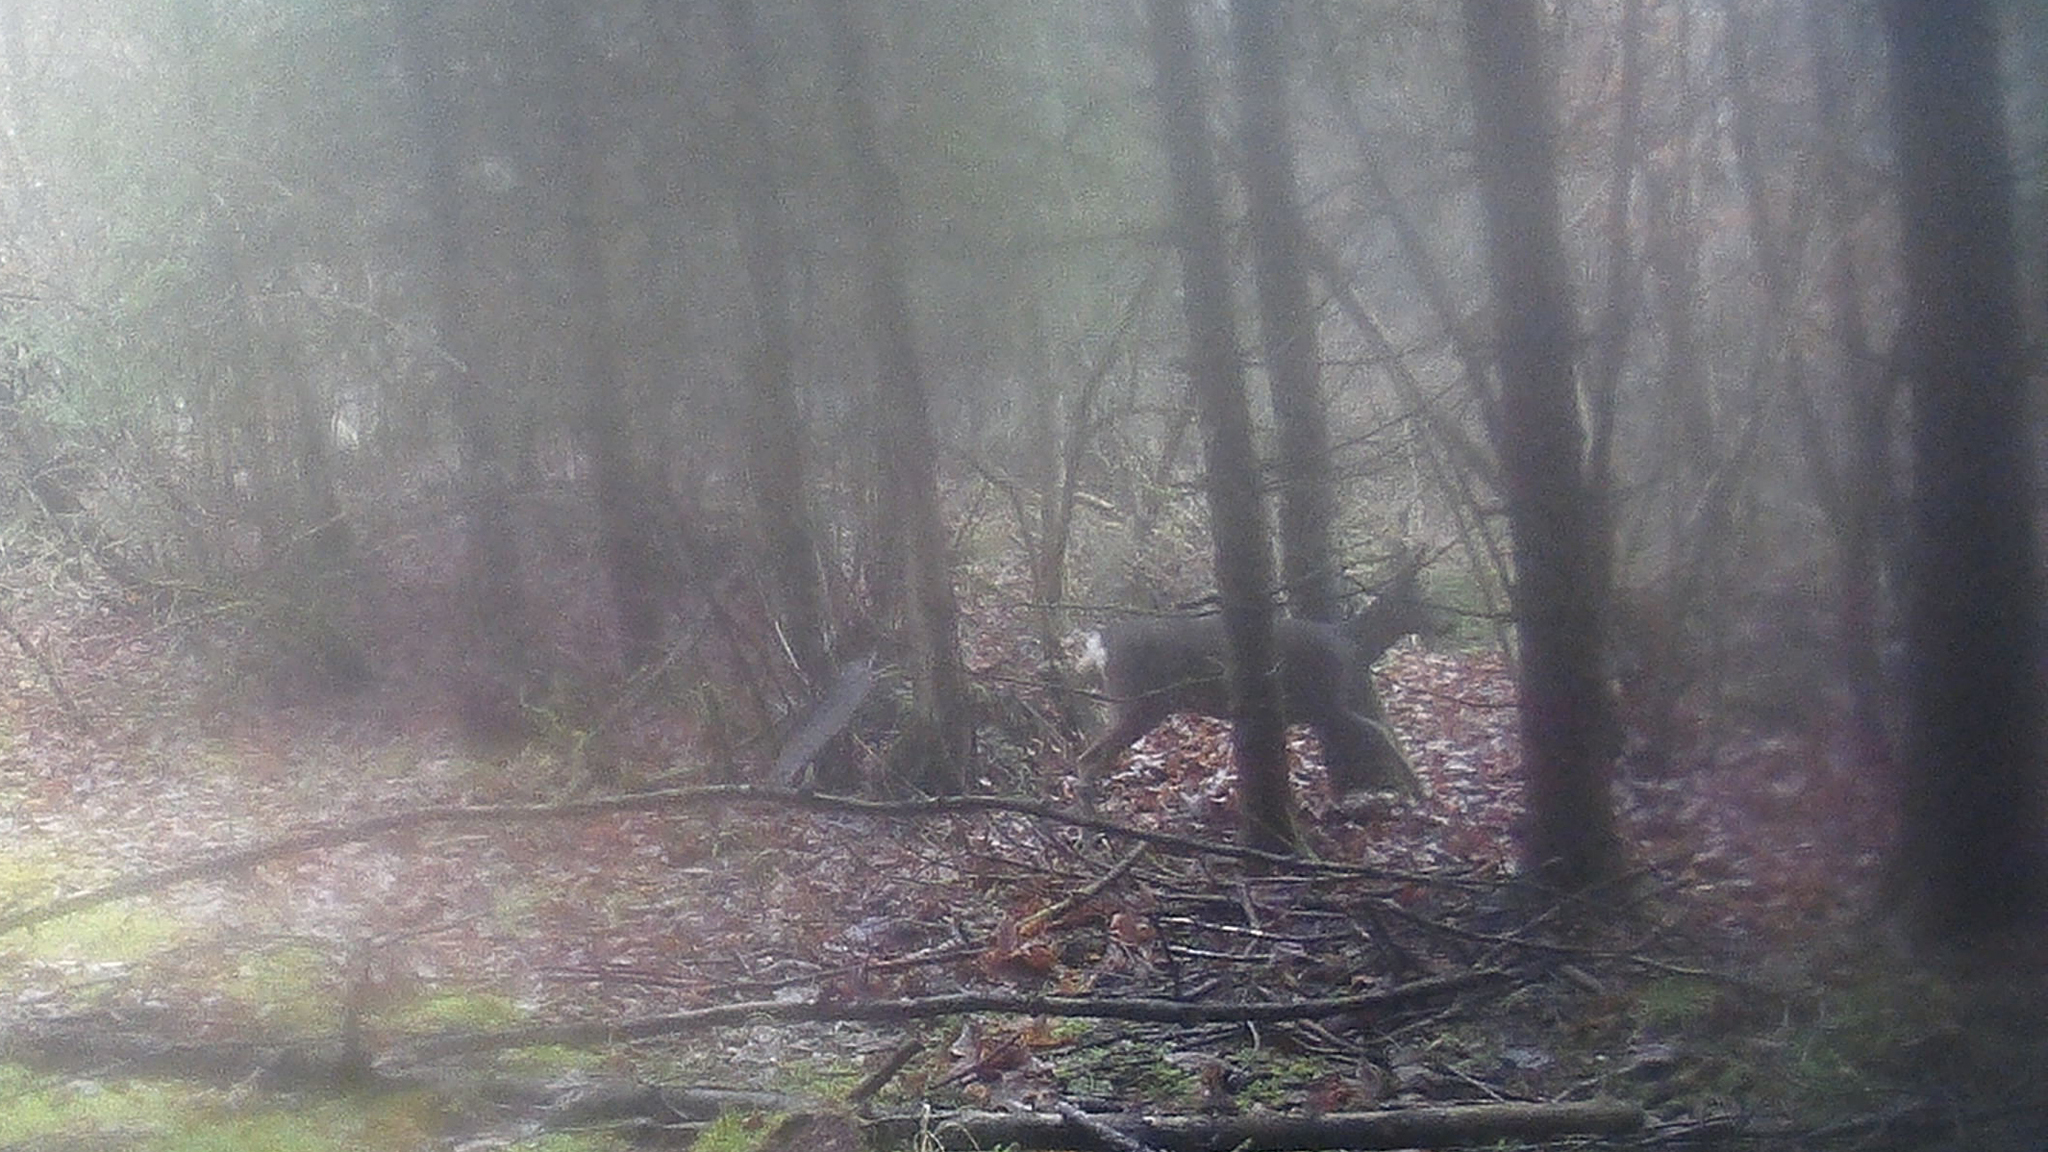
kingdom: Animalia
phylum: Chordata
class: Mammalia
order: Artiodactyla
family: Cervidae
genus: Capreolus
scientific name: Capreolus capreolus
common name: Western roe deer
